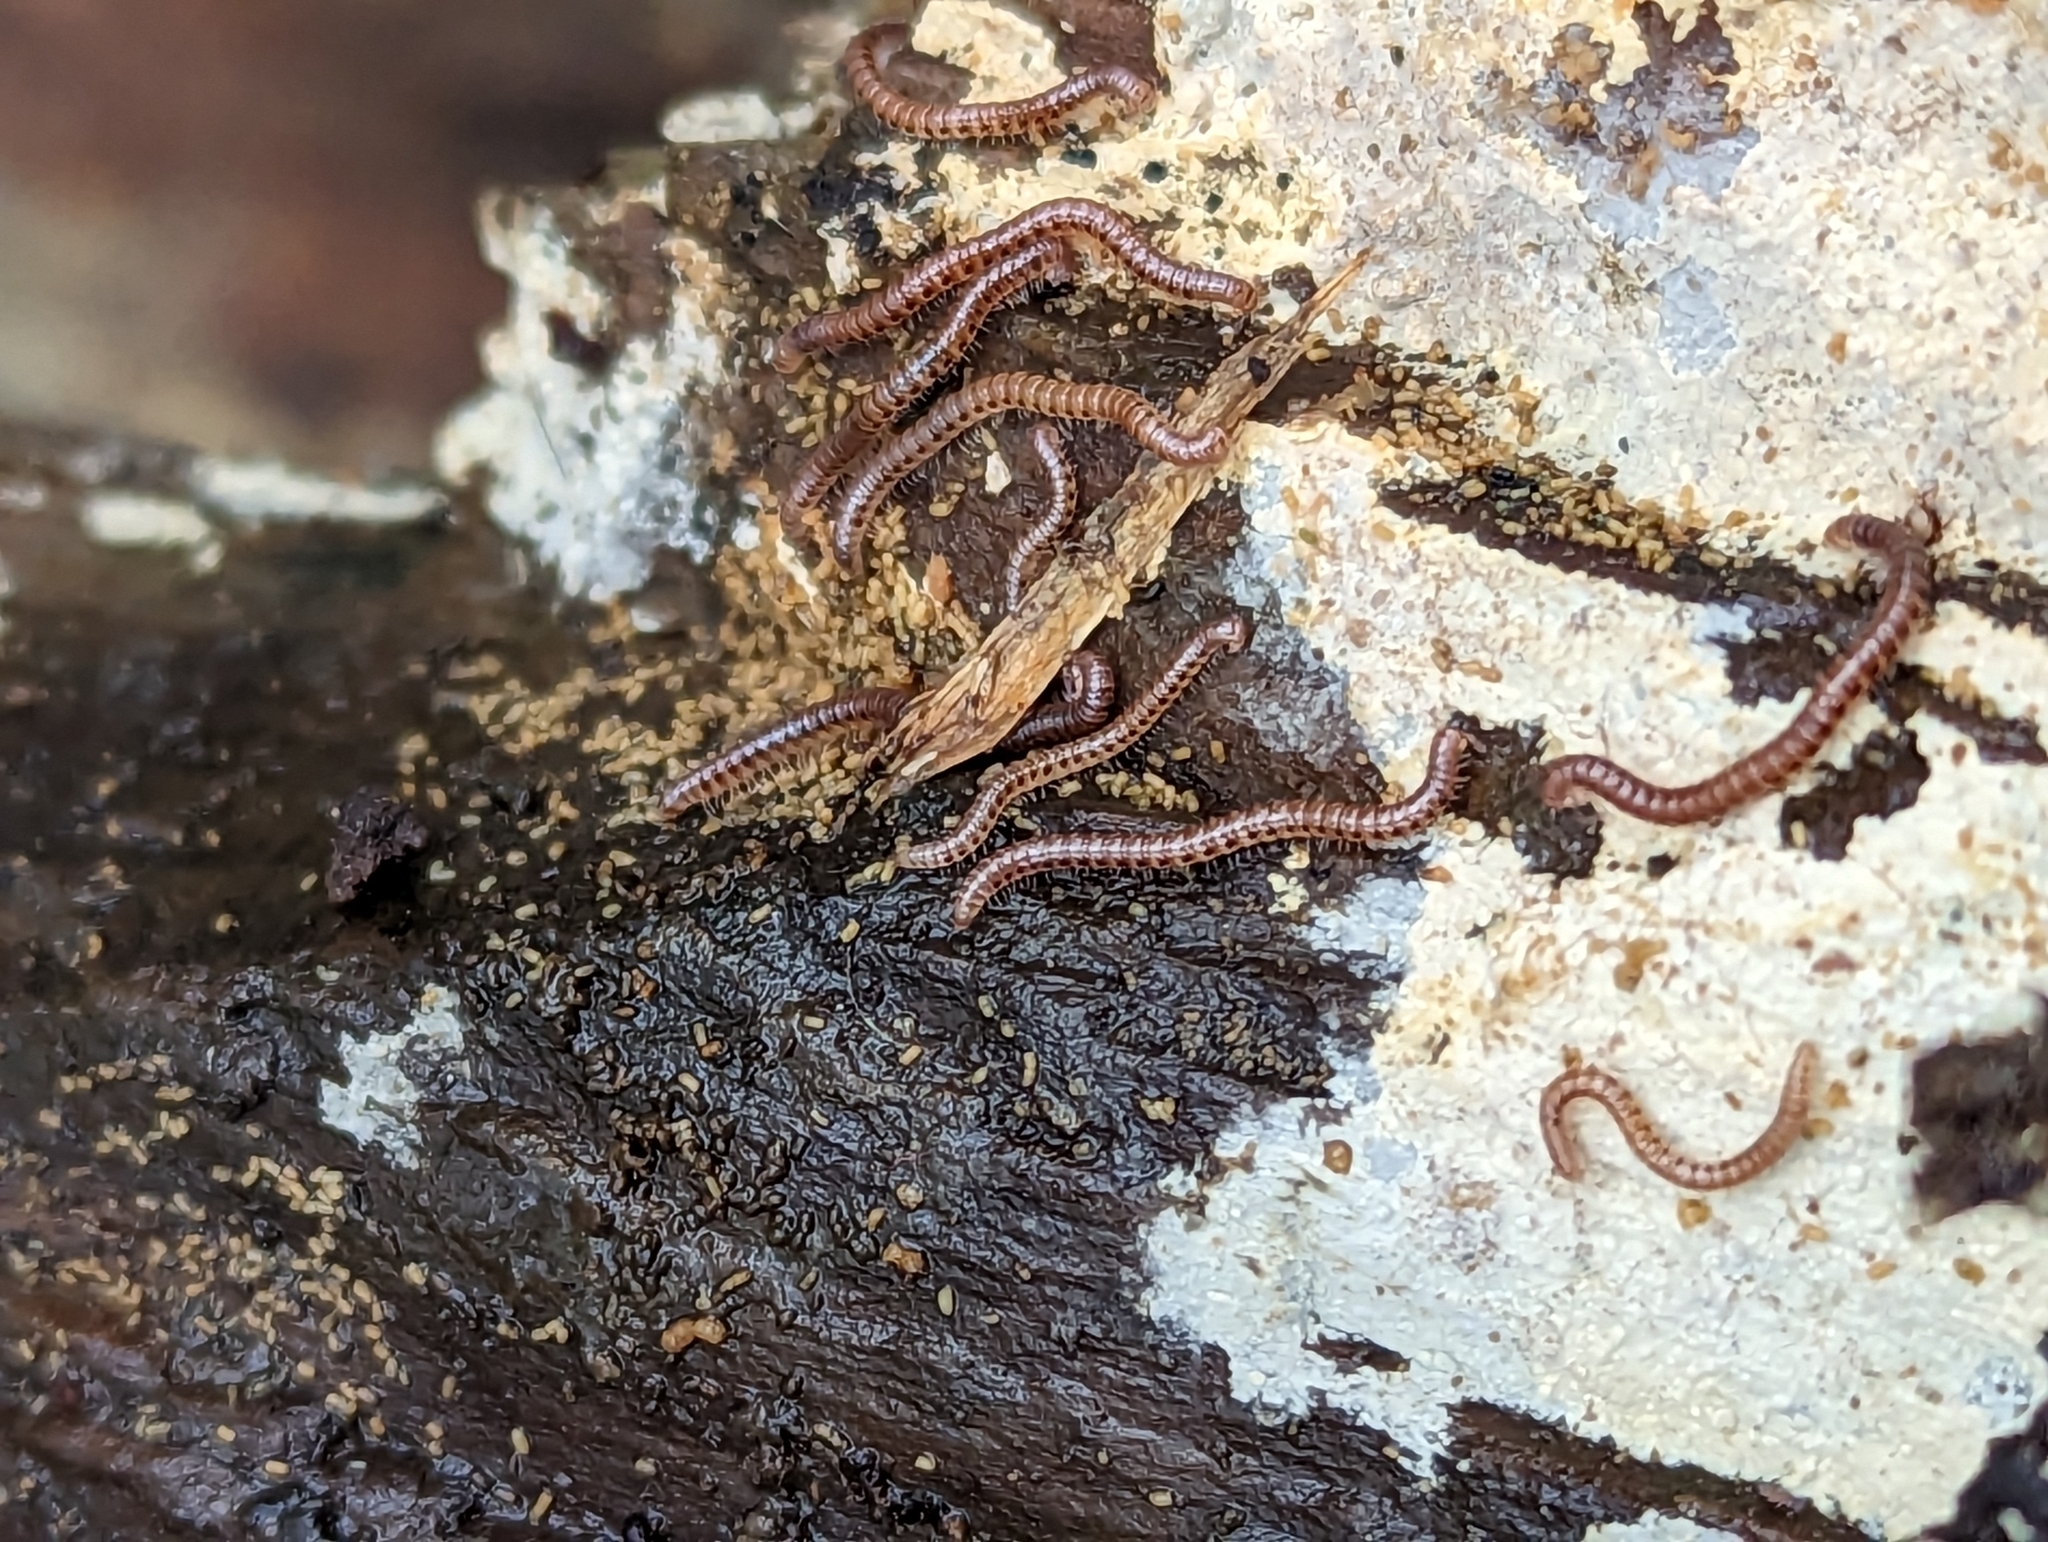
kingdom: Animalia
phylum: Arthropoda
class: Diplopoda
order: Julida
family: Blaniulidae
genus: Proteroiulus
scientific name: Proteroiulus fuscus
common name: Millipede
